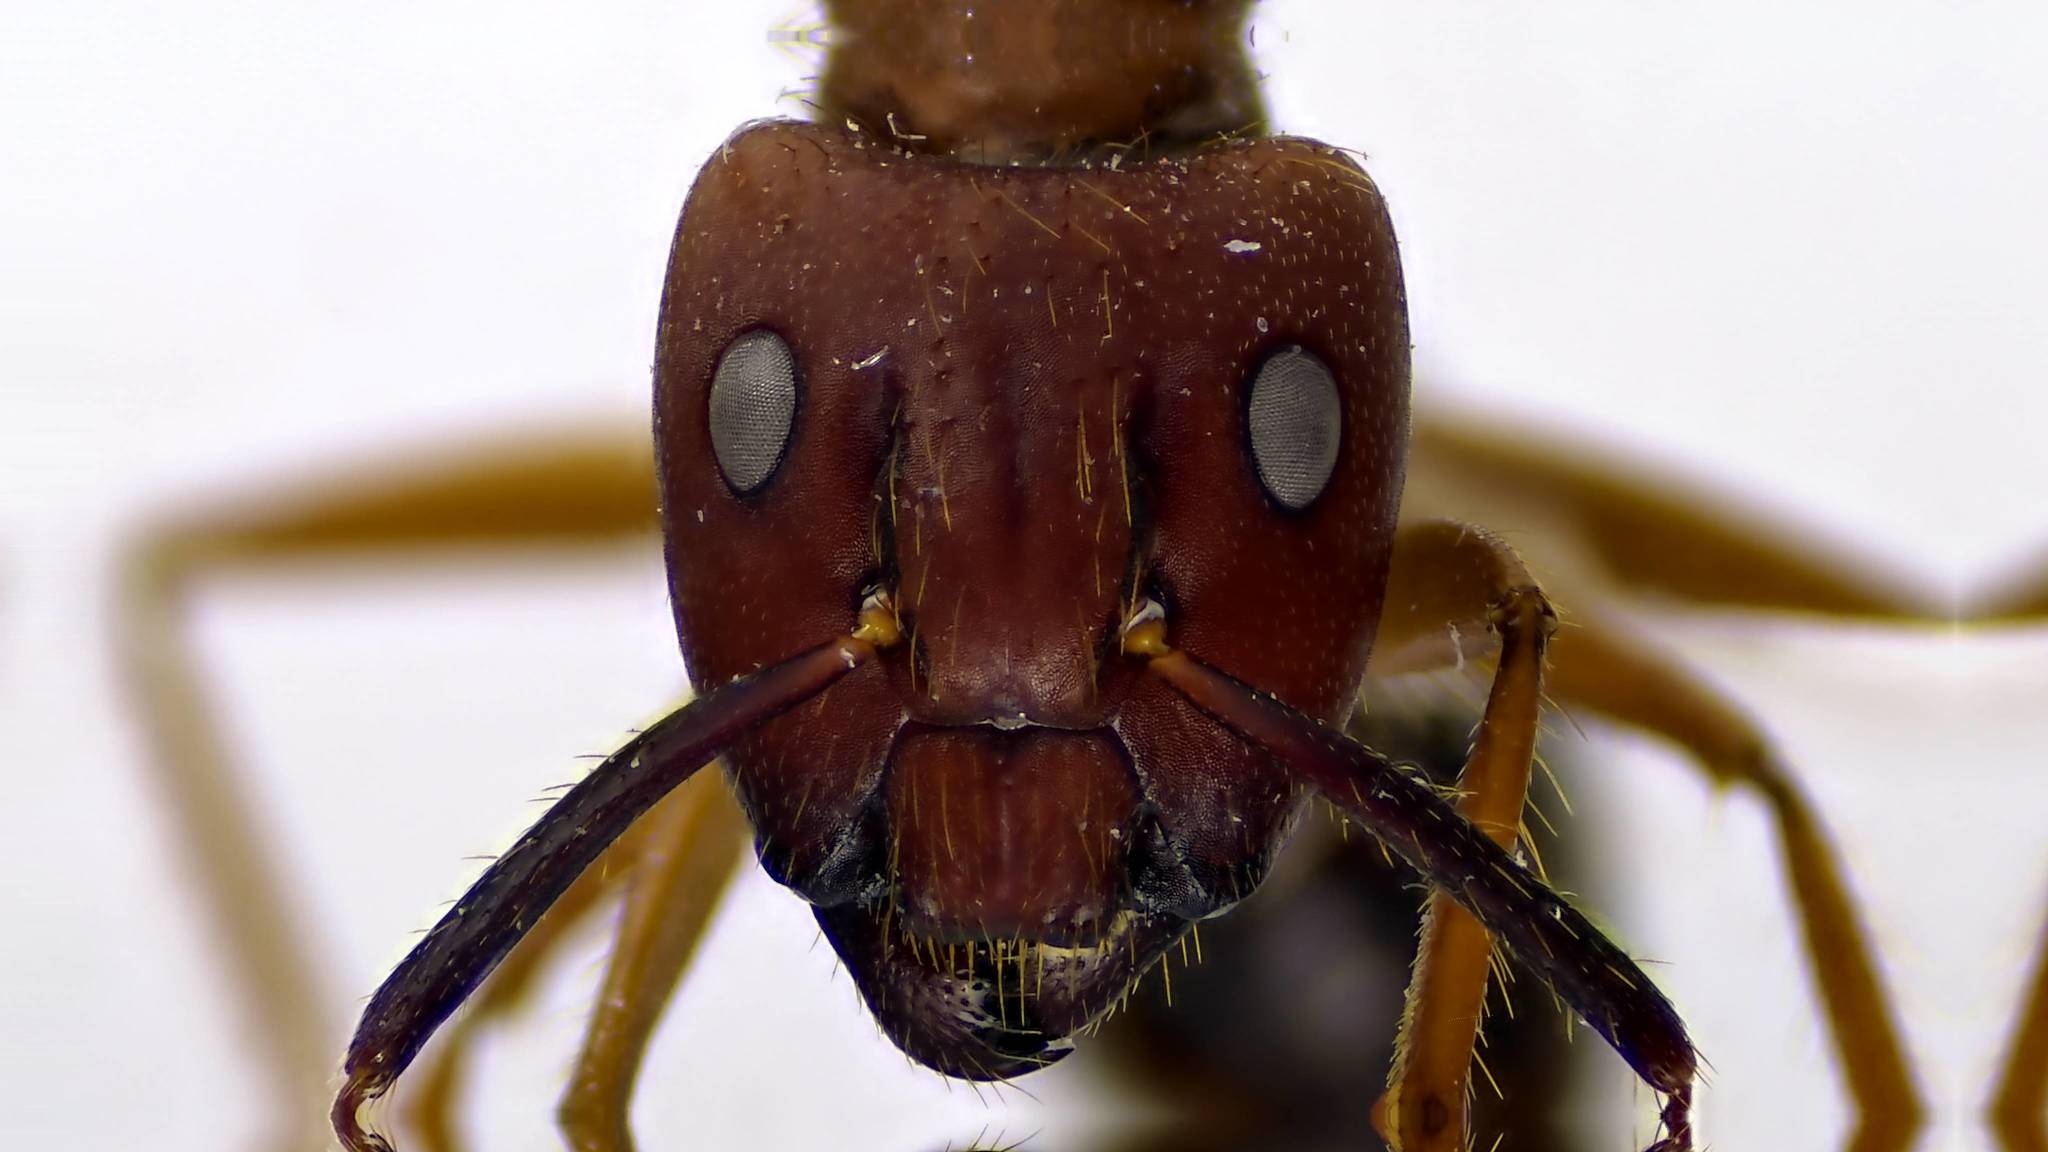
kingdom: Animalia
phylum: Arthropoda
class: Insecta
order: Hymenoptera
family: Formicidae
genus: Camponotus
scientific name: Camponotus floridanus
